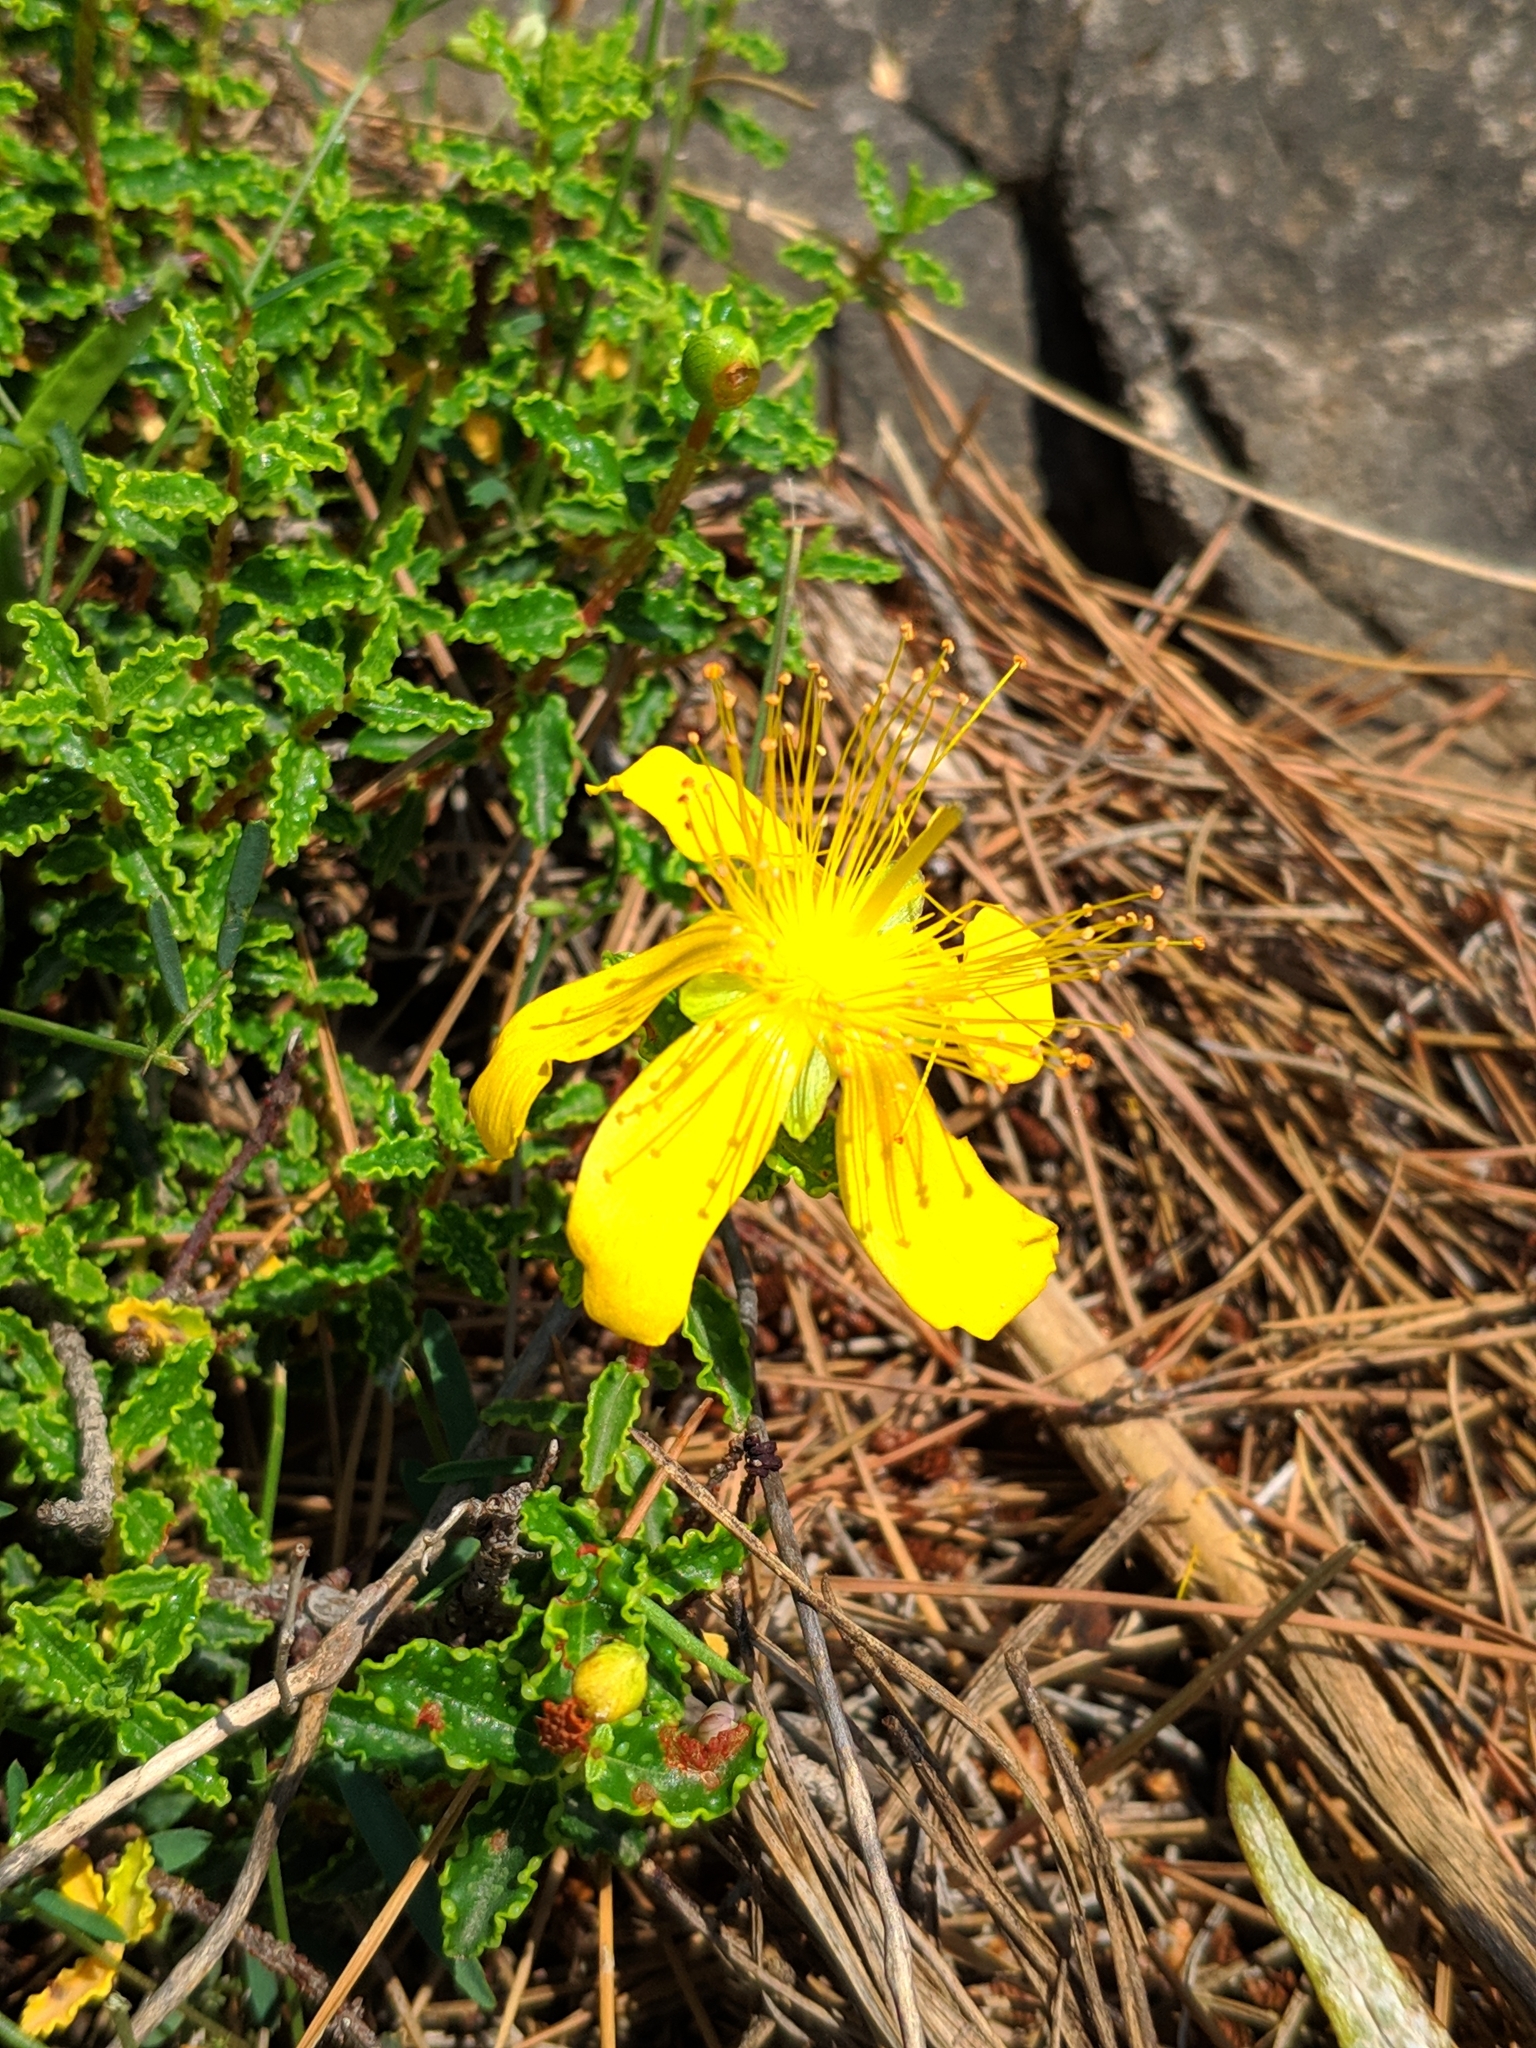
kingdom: Plantae
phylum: Tracheophyta
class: Magnoliopsida
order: Malpighiales
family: Hypericaceae
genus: Hypericum
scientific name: Hypericum balearicum
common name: Majorca st john's wort
